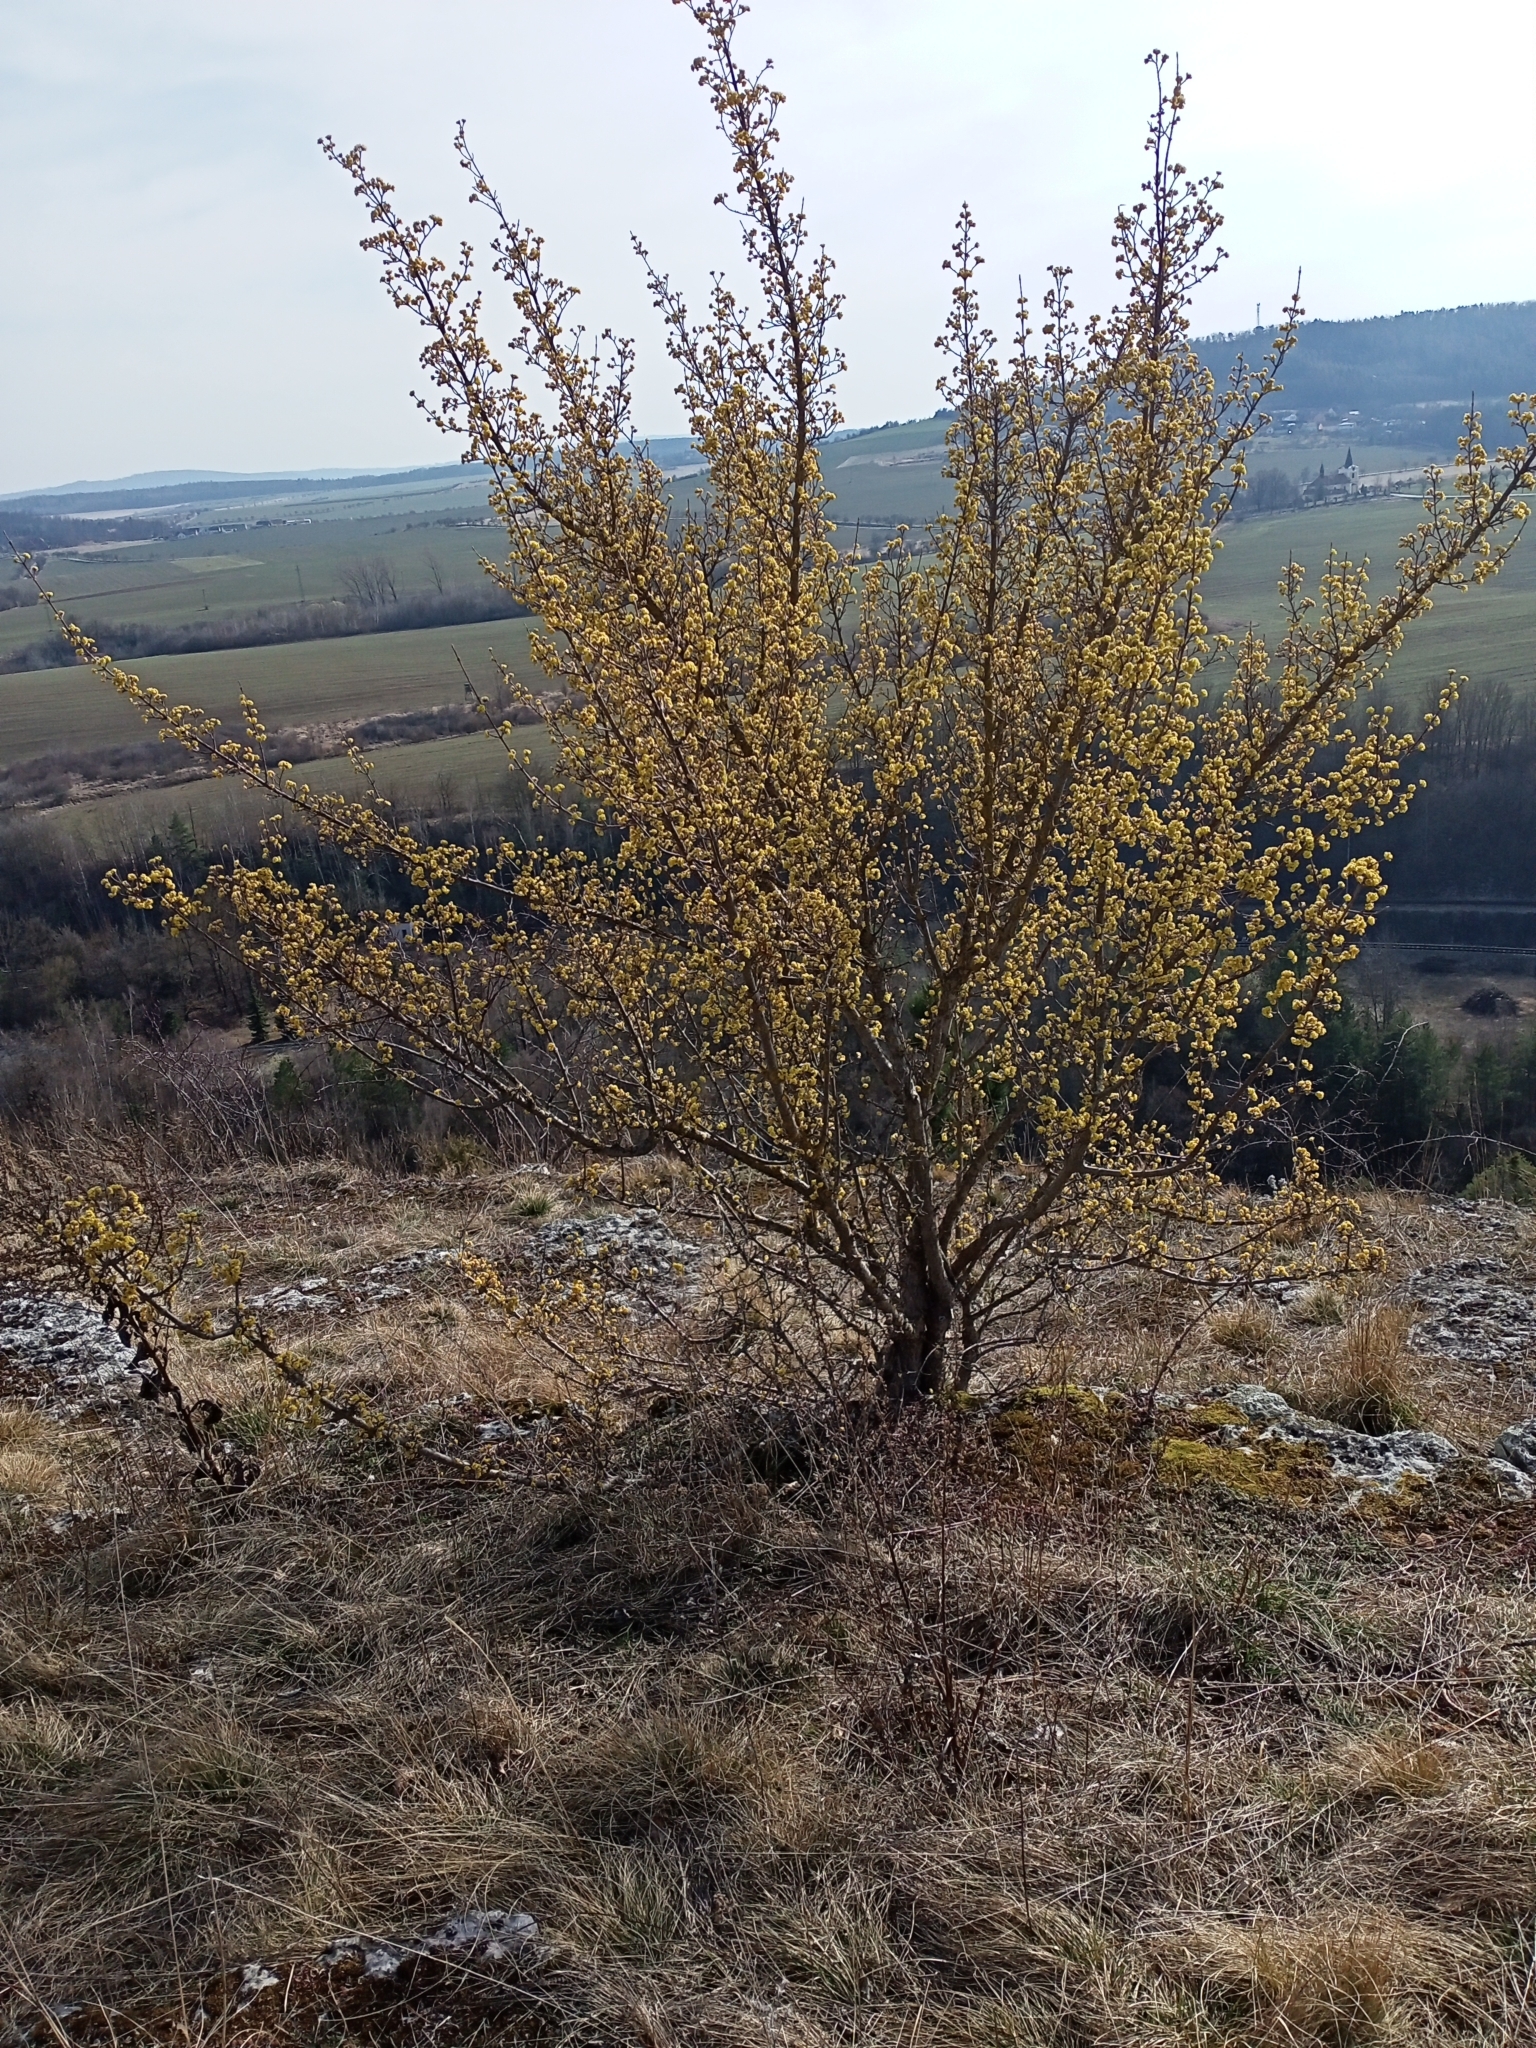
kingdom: Plantae
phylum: Tracheophyta
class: Magnoliopsida
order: Cornales
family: Cornaceae
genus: Cornus
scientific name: Cornus mas
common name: Cornelian-cherry
